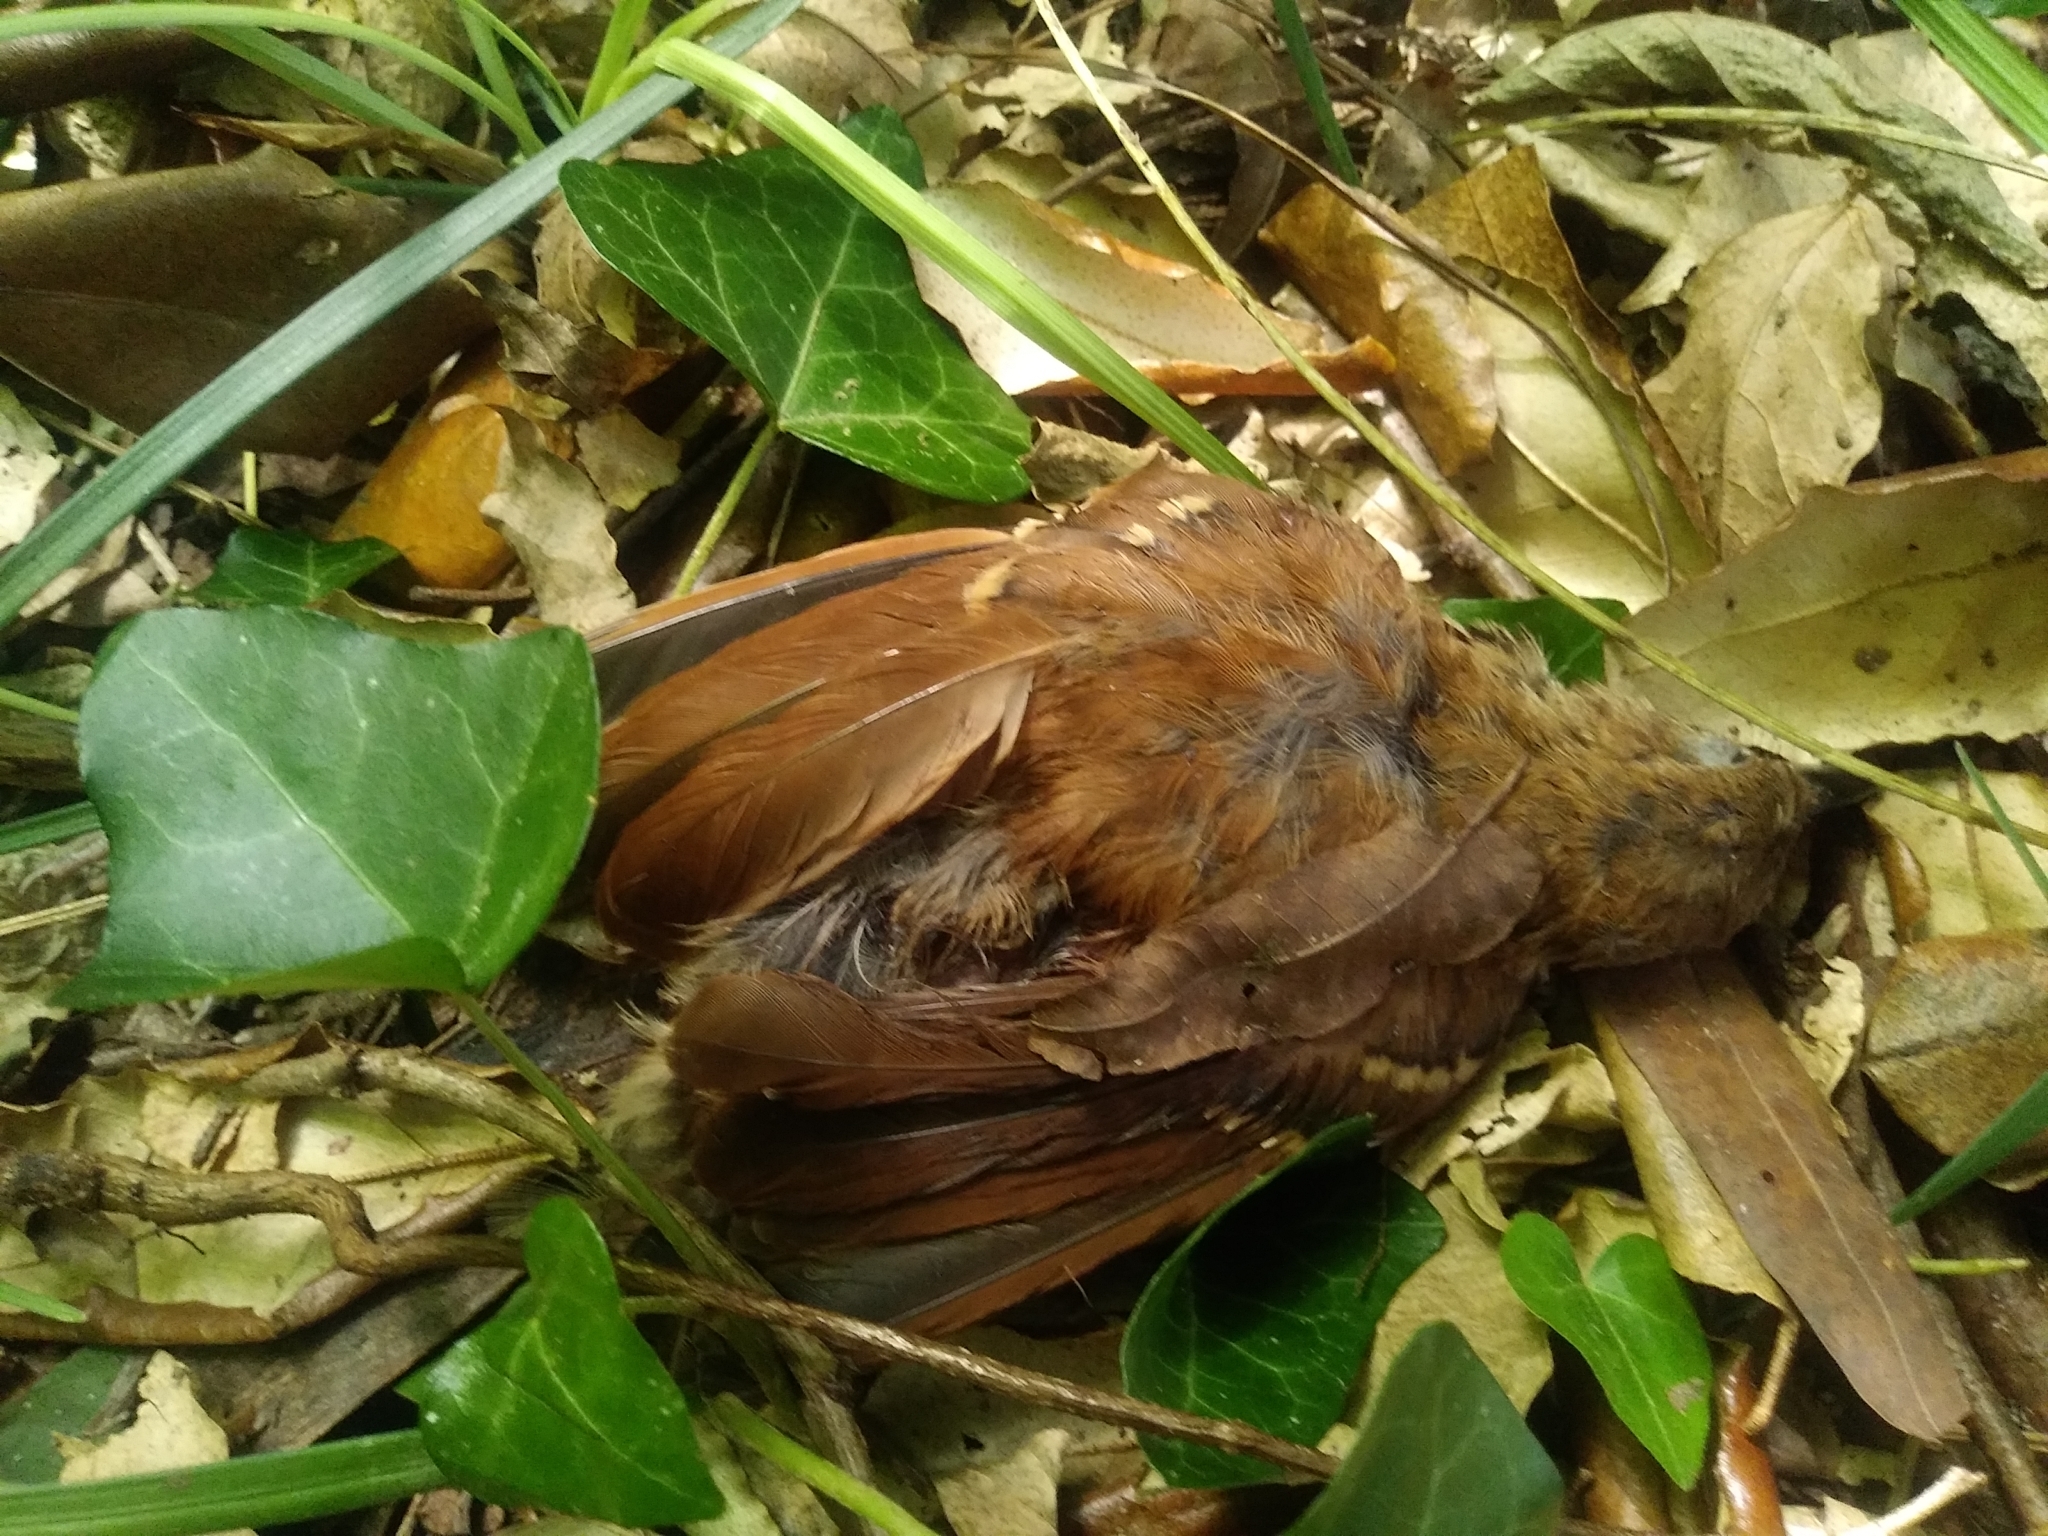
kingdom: Animalia
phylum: Chordata
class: Aves
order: Passeriformes
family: Mimidae
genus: Toxostoma
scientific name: Toxostoma rufum
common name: Brown thrasher
